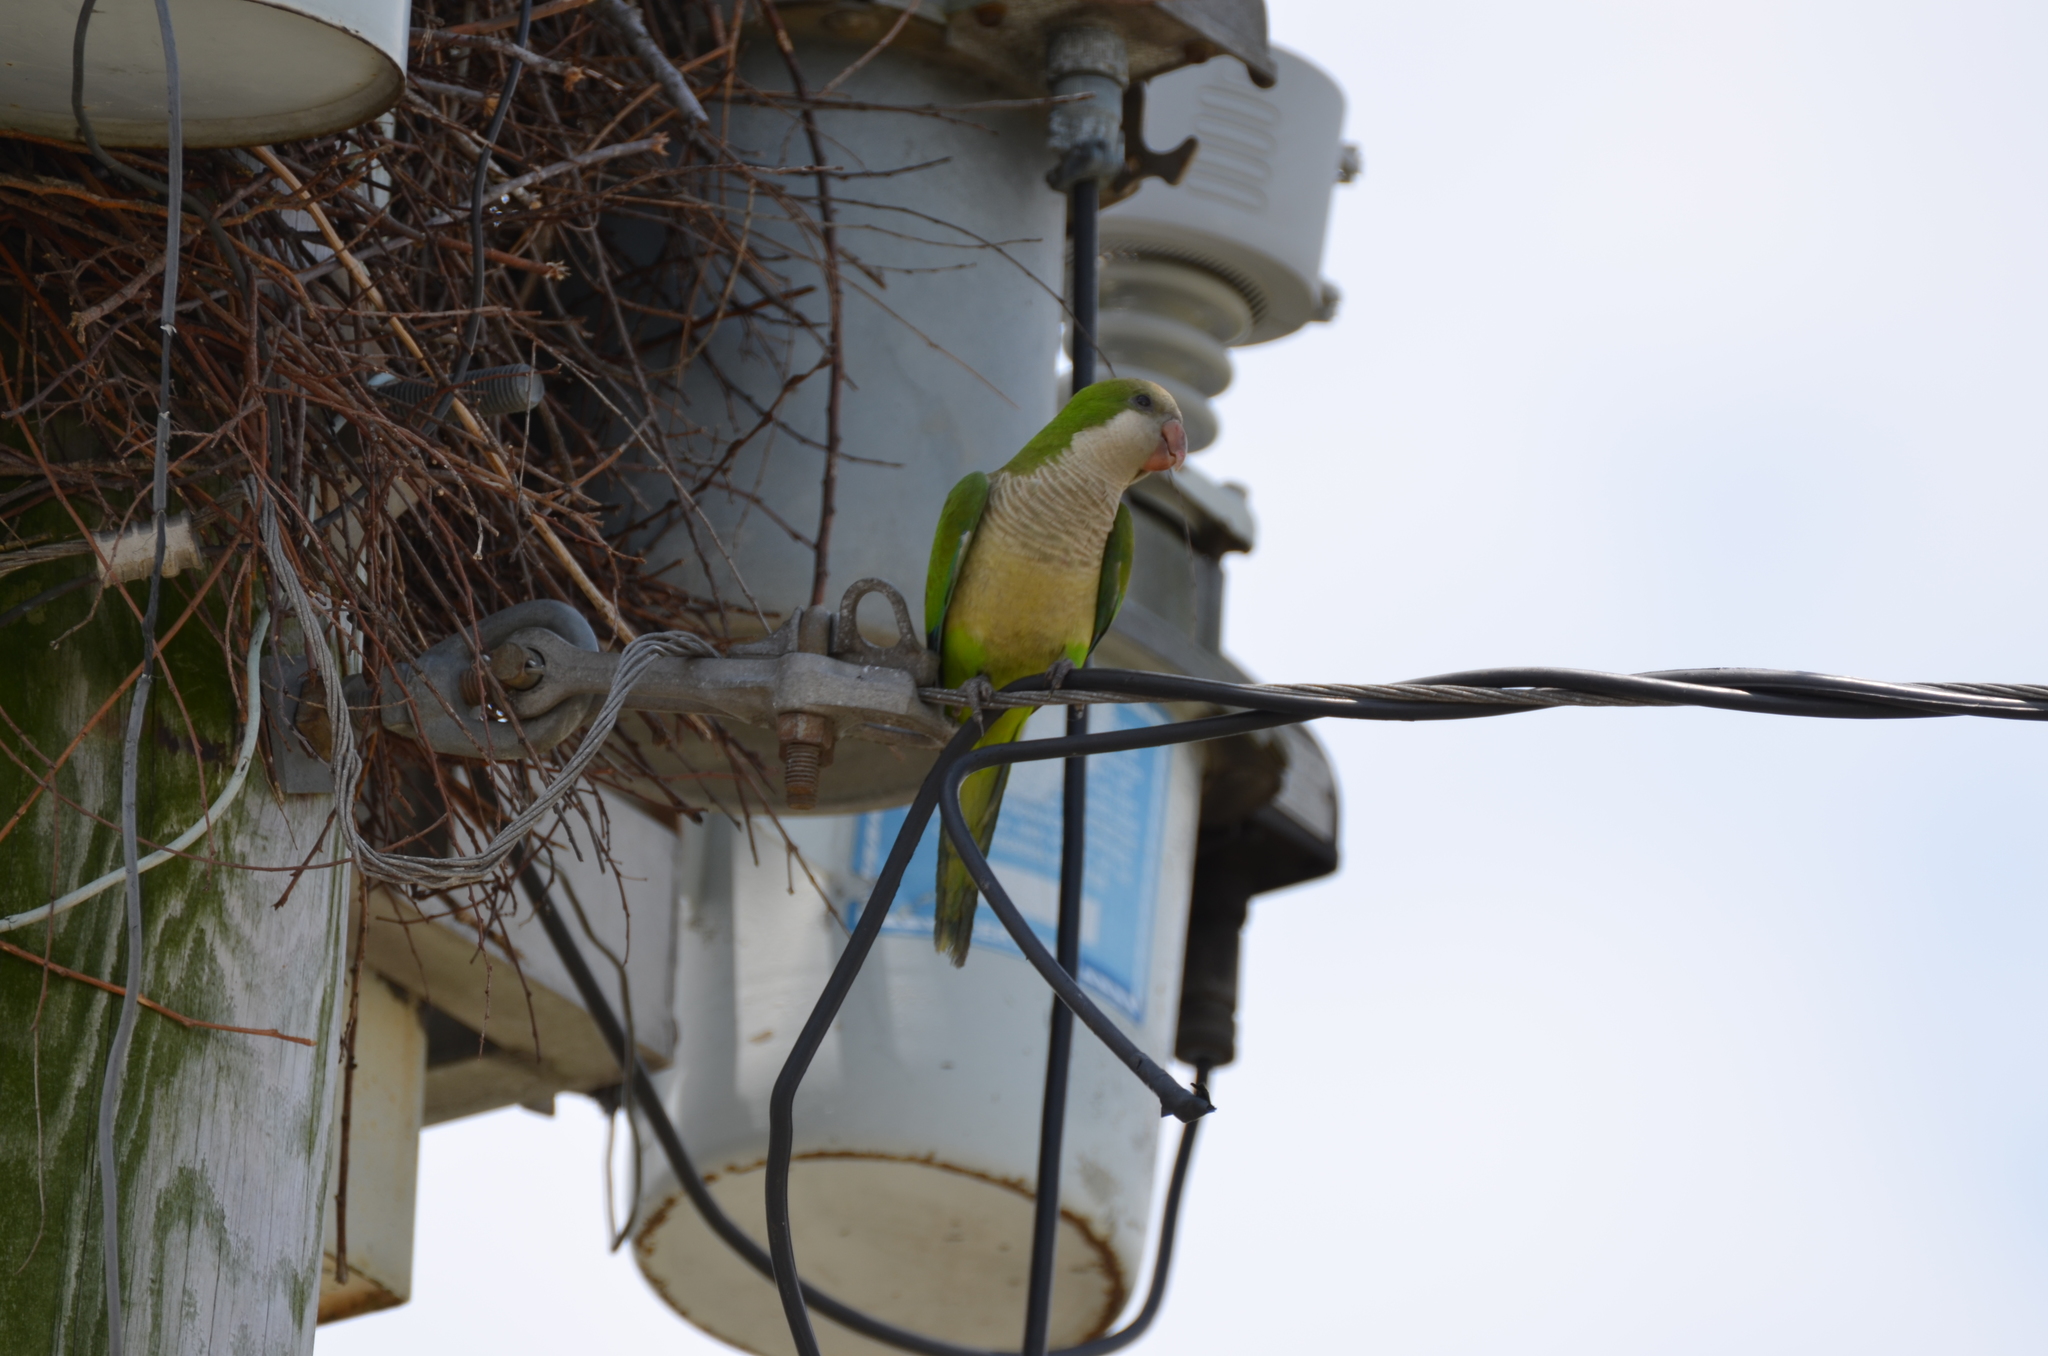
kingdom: Animalia
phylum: Chordata
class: Aves
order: Psittaciformes
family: Psittacidae
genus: Myiopsitta
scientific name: Myiopsitta monachus
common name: Monk parakeet
